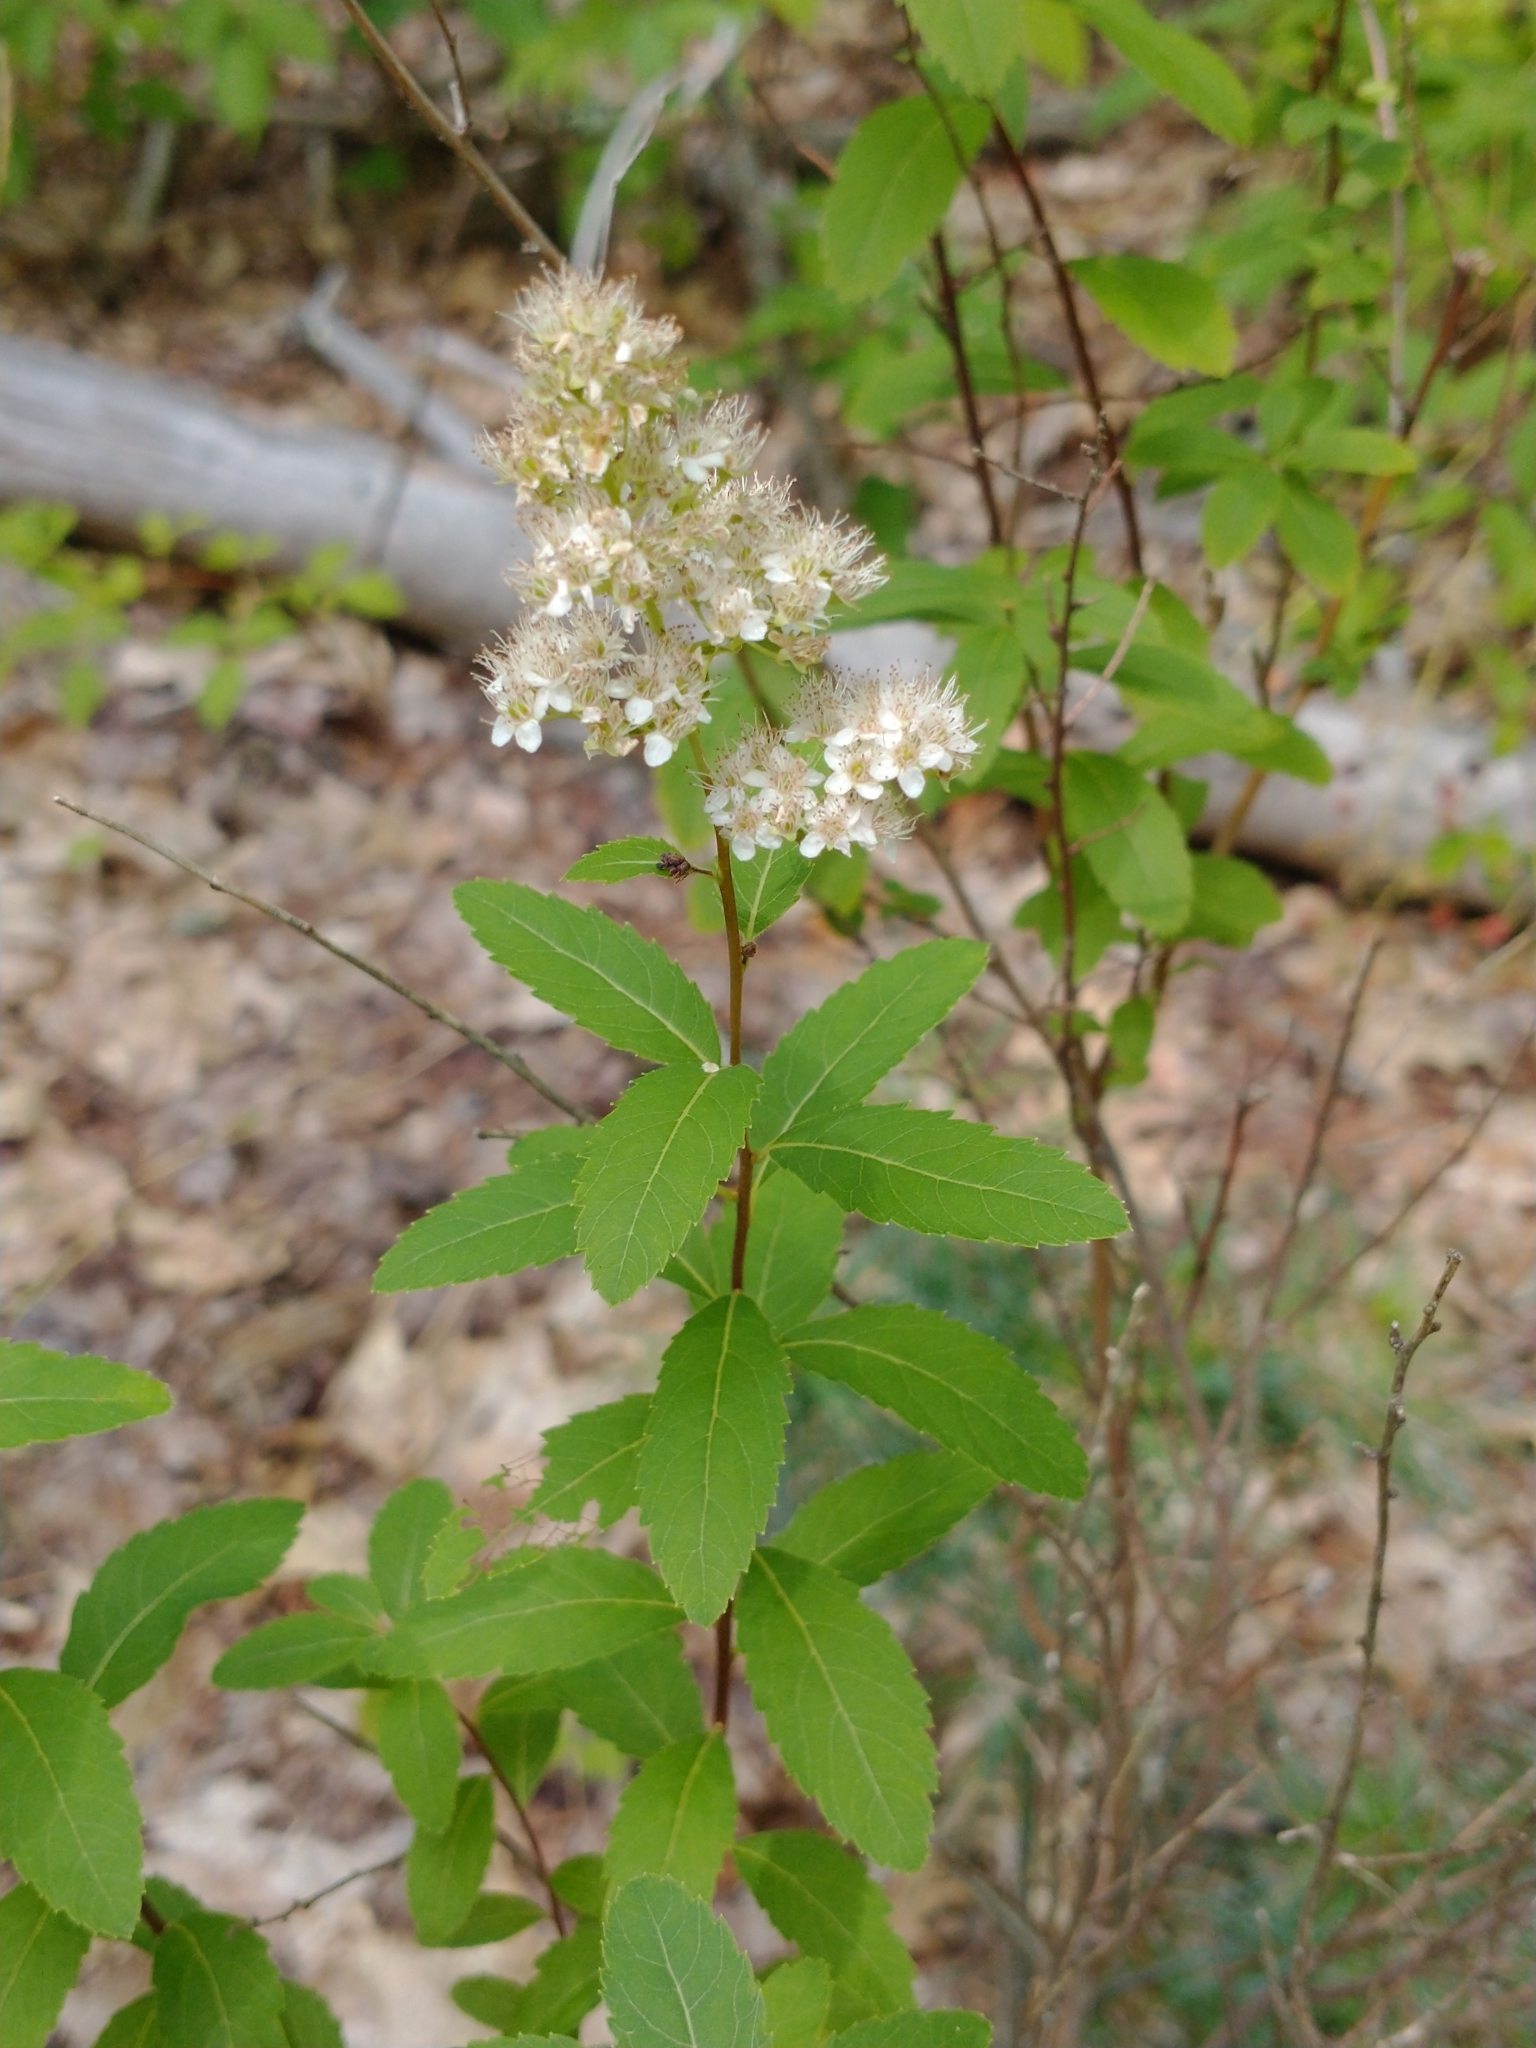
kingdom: Plantae
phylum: Tracheophyta
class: Magnoliopsida
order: Rosales
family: Rosaceae
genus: Spiraea
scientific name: Spiraea alba
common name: Pale bridewort
